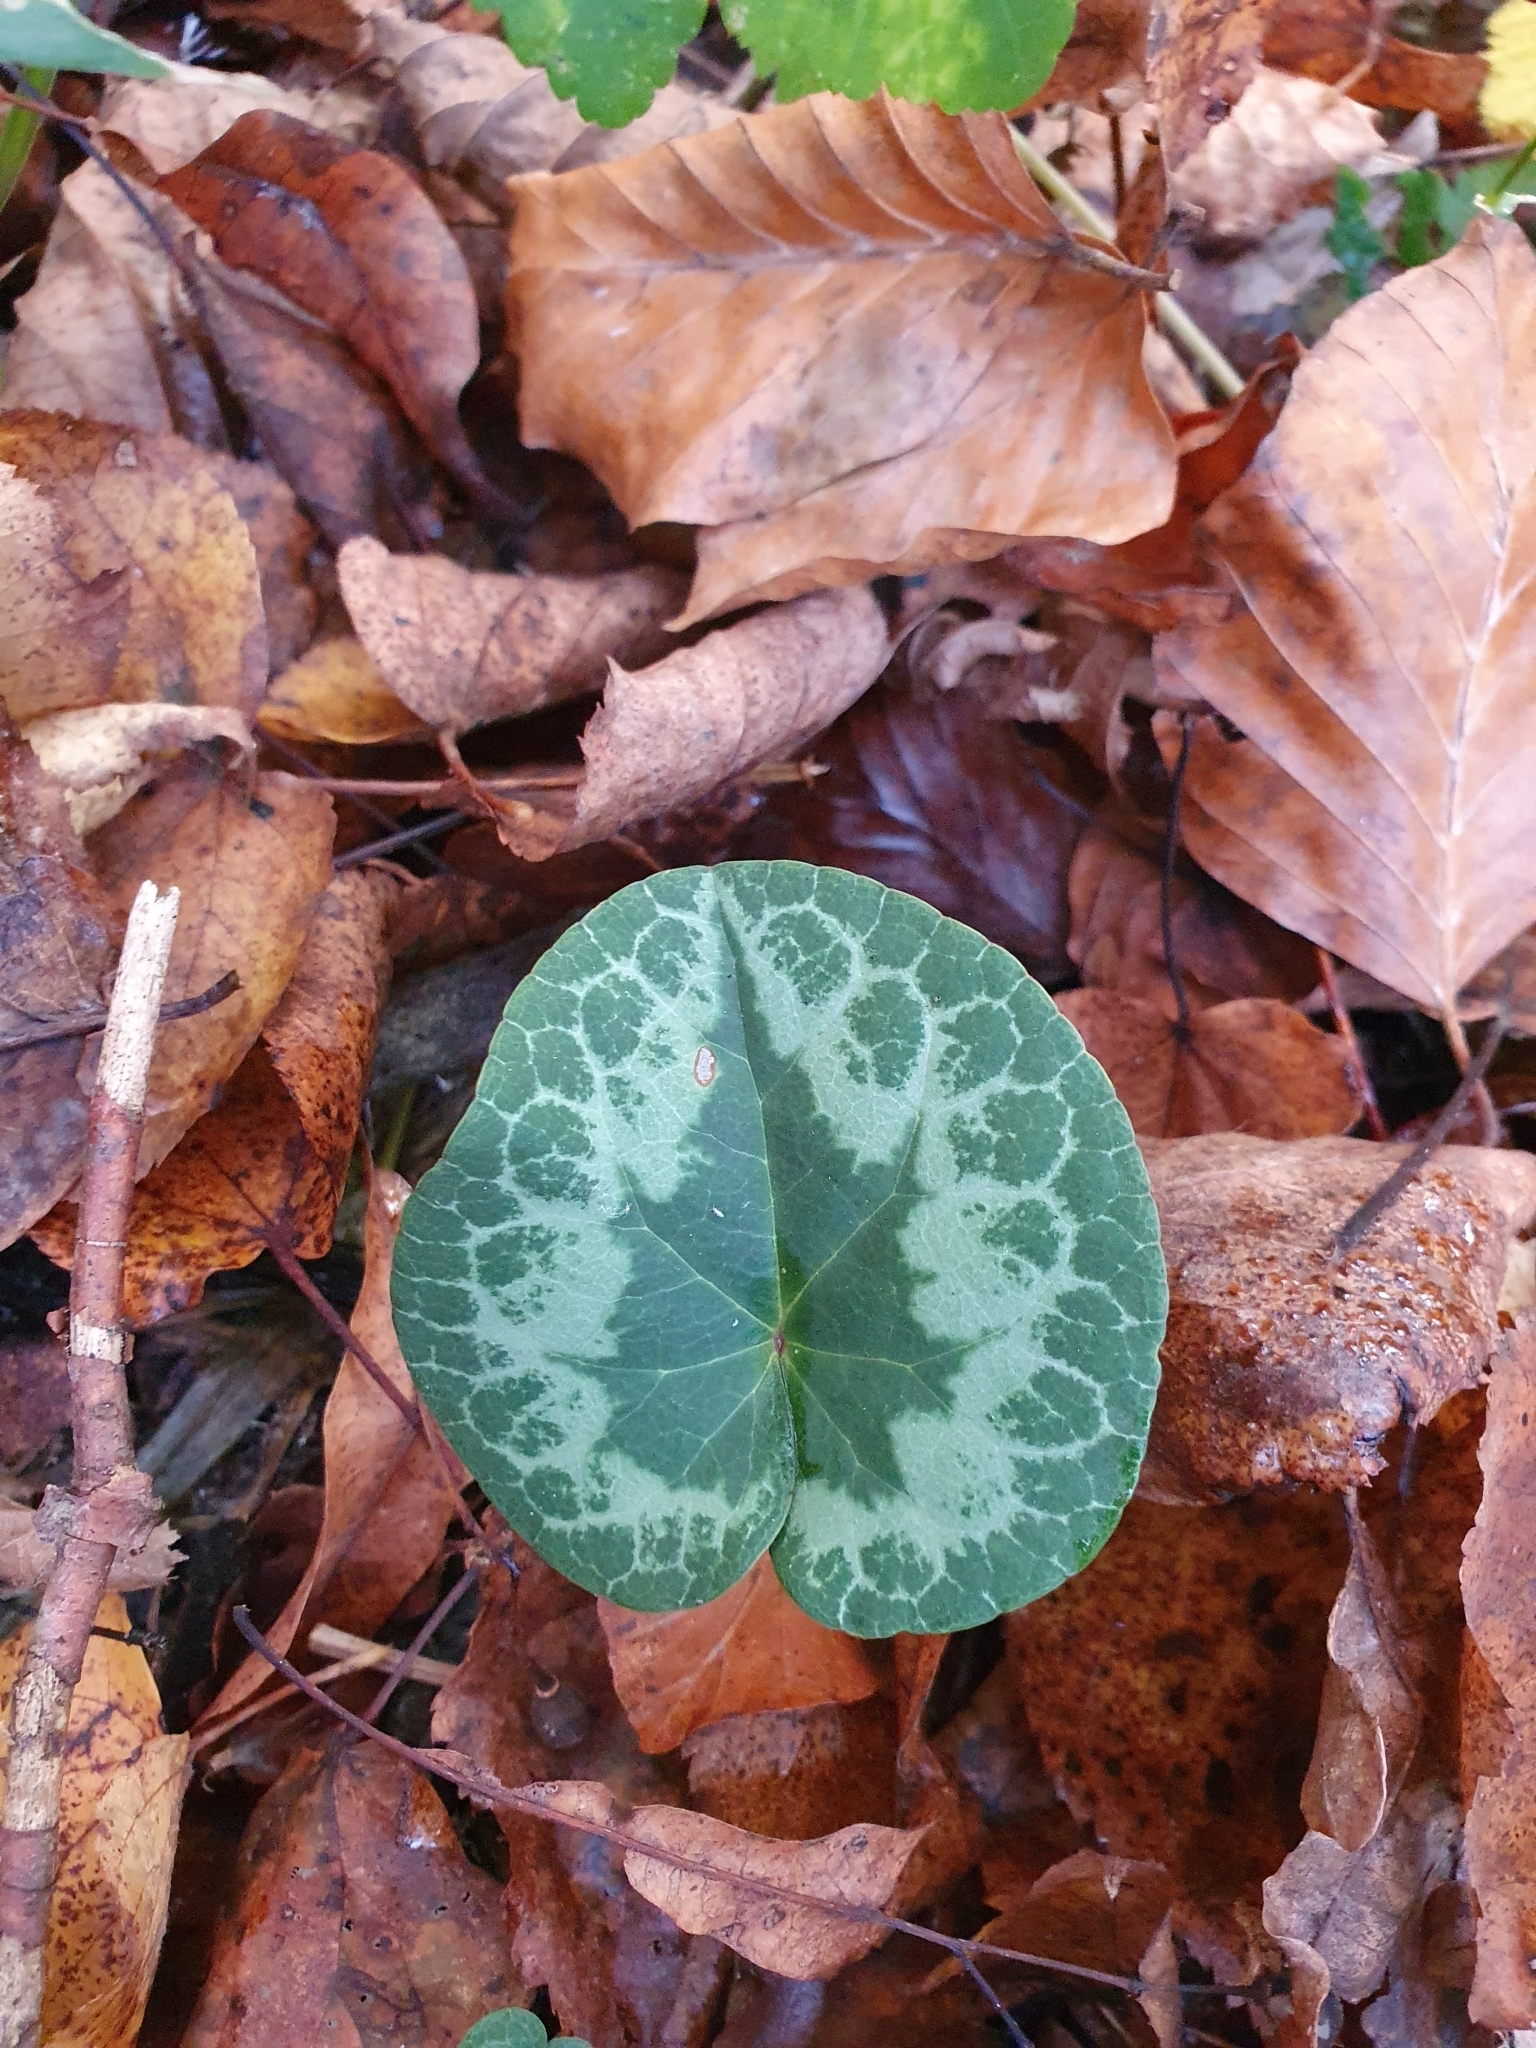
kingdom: Plantae
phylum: Tracheophyta
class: Magnoliopsida
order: Ericales
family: Primulaceae
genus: Cyclamen
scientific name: Cyclamen purpurascens
